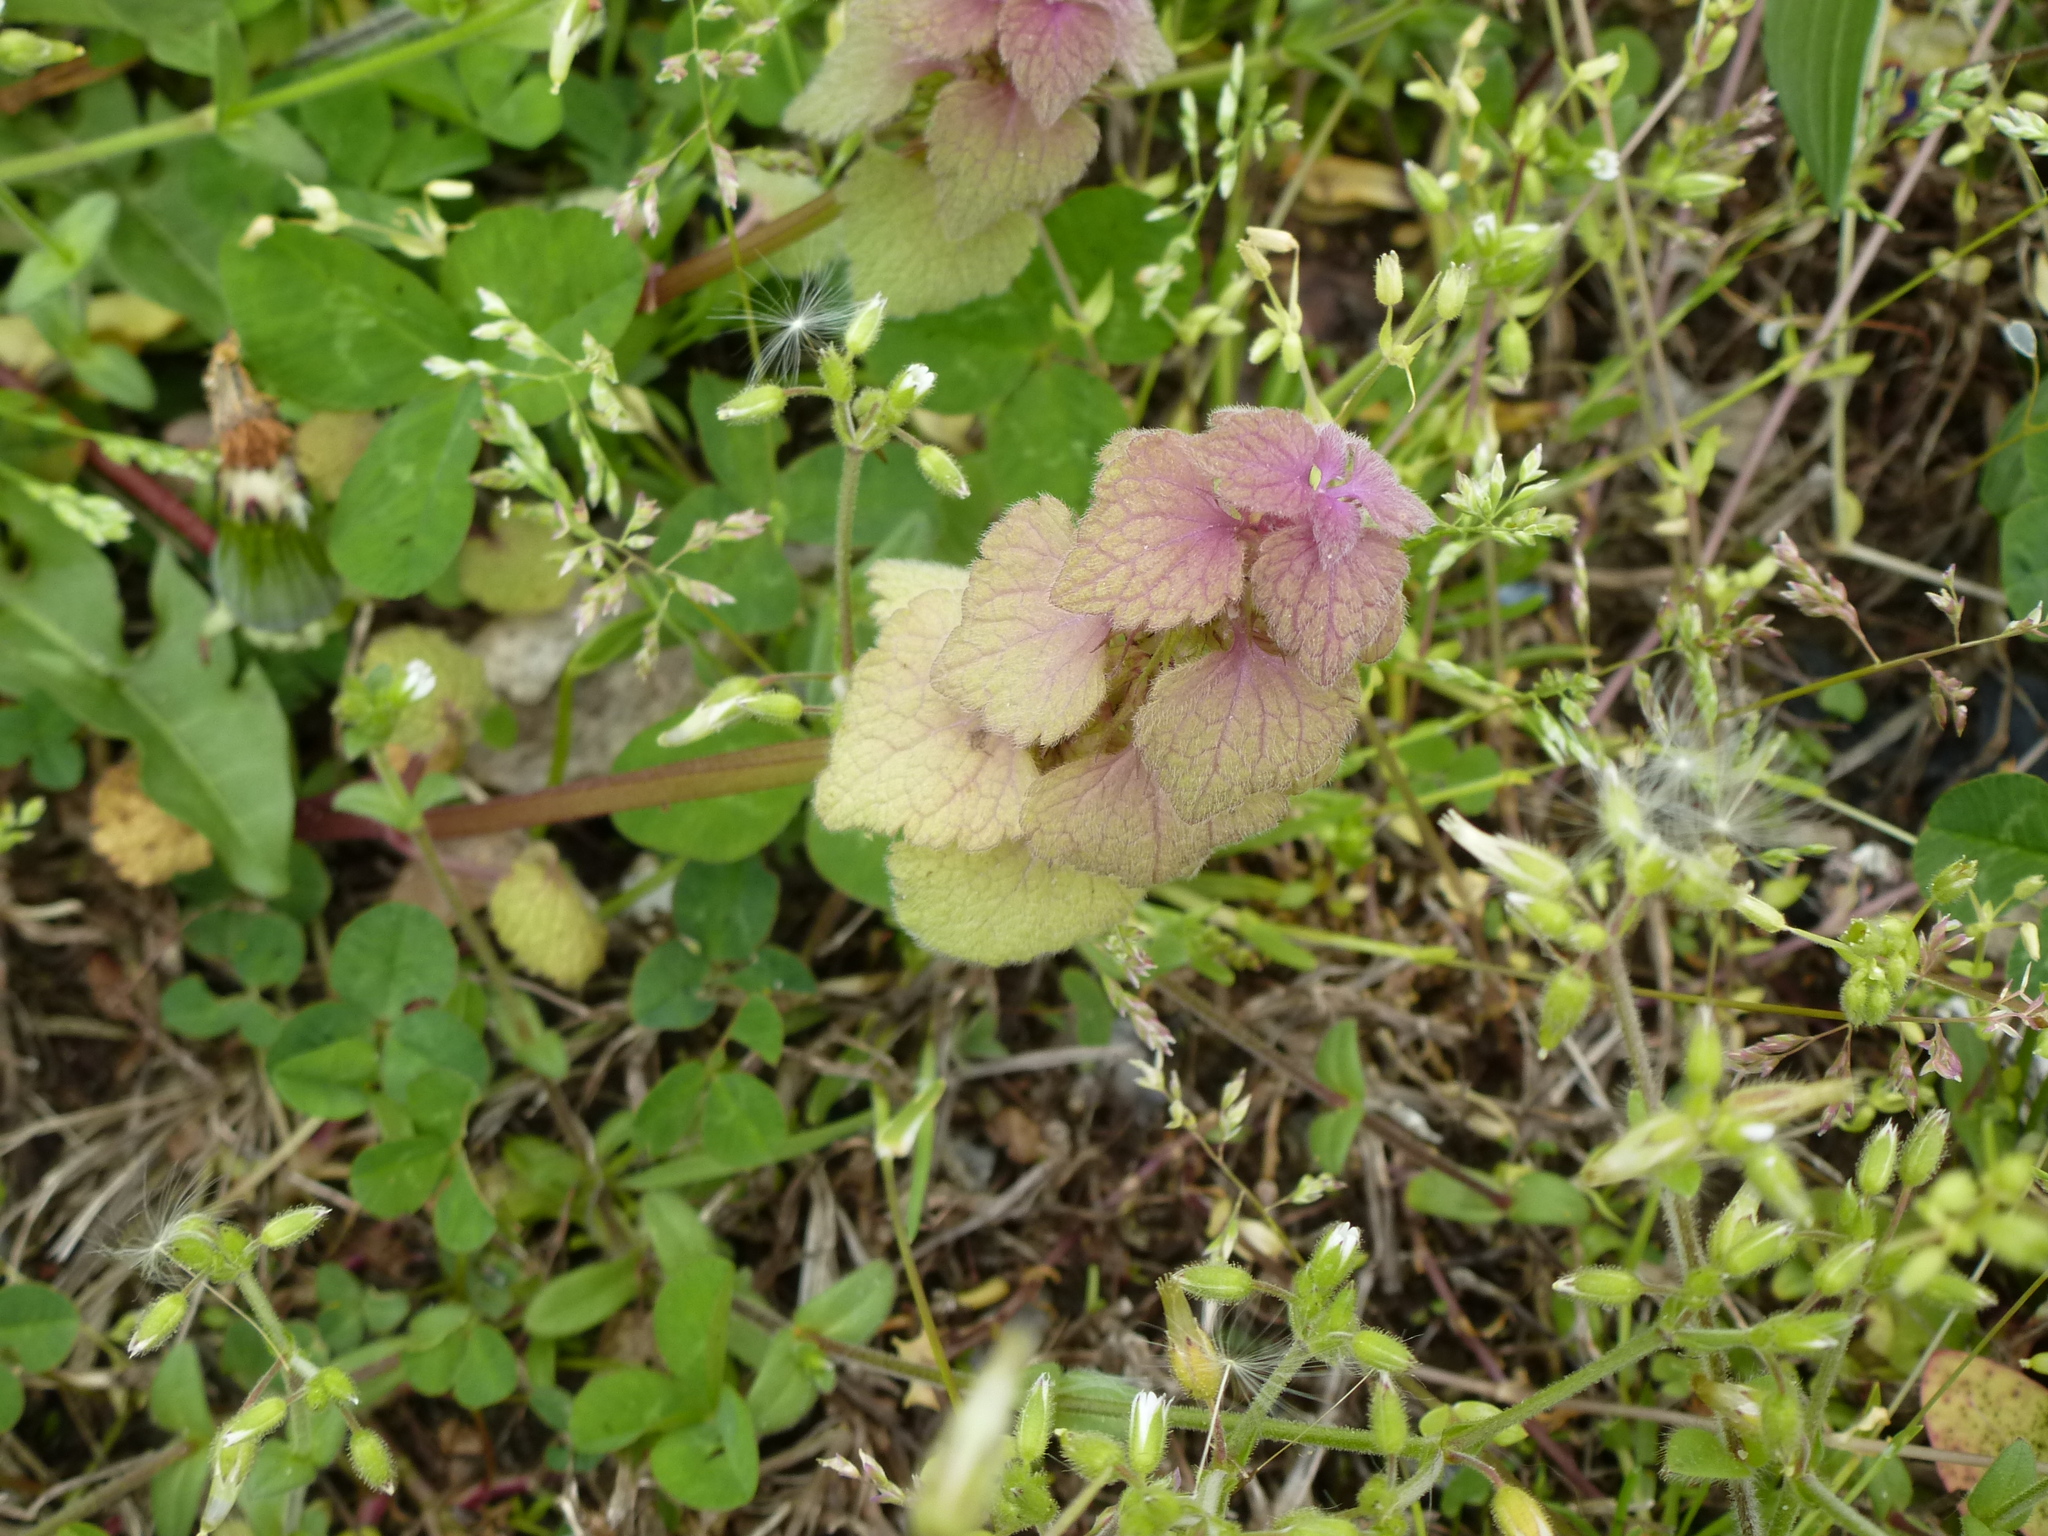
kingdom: Plantae
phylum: Tracheophyta
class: Magnoliopsida
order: Lamiales
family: Lamiaceae
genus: Lamium
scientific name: Lamium purpureum
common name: Red dead-nettle
